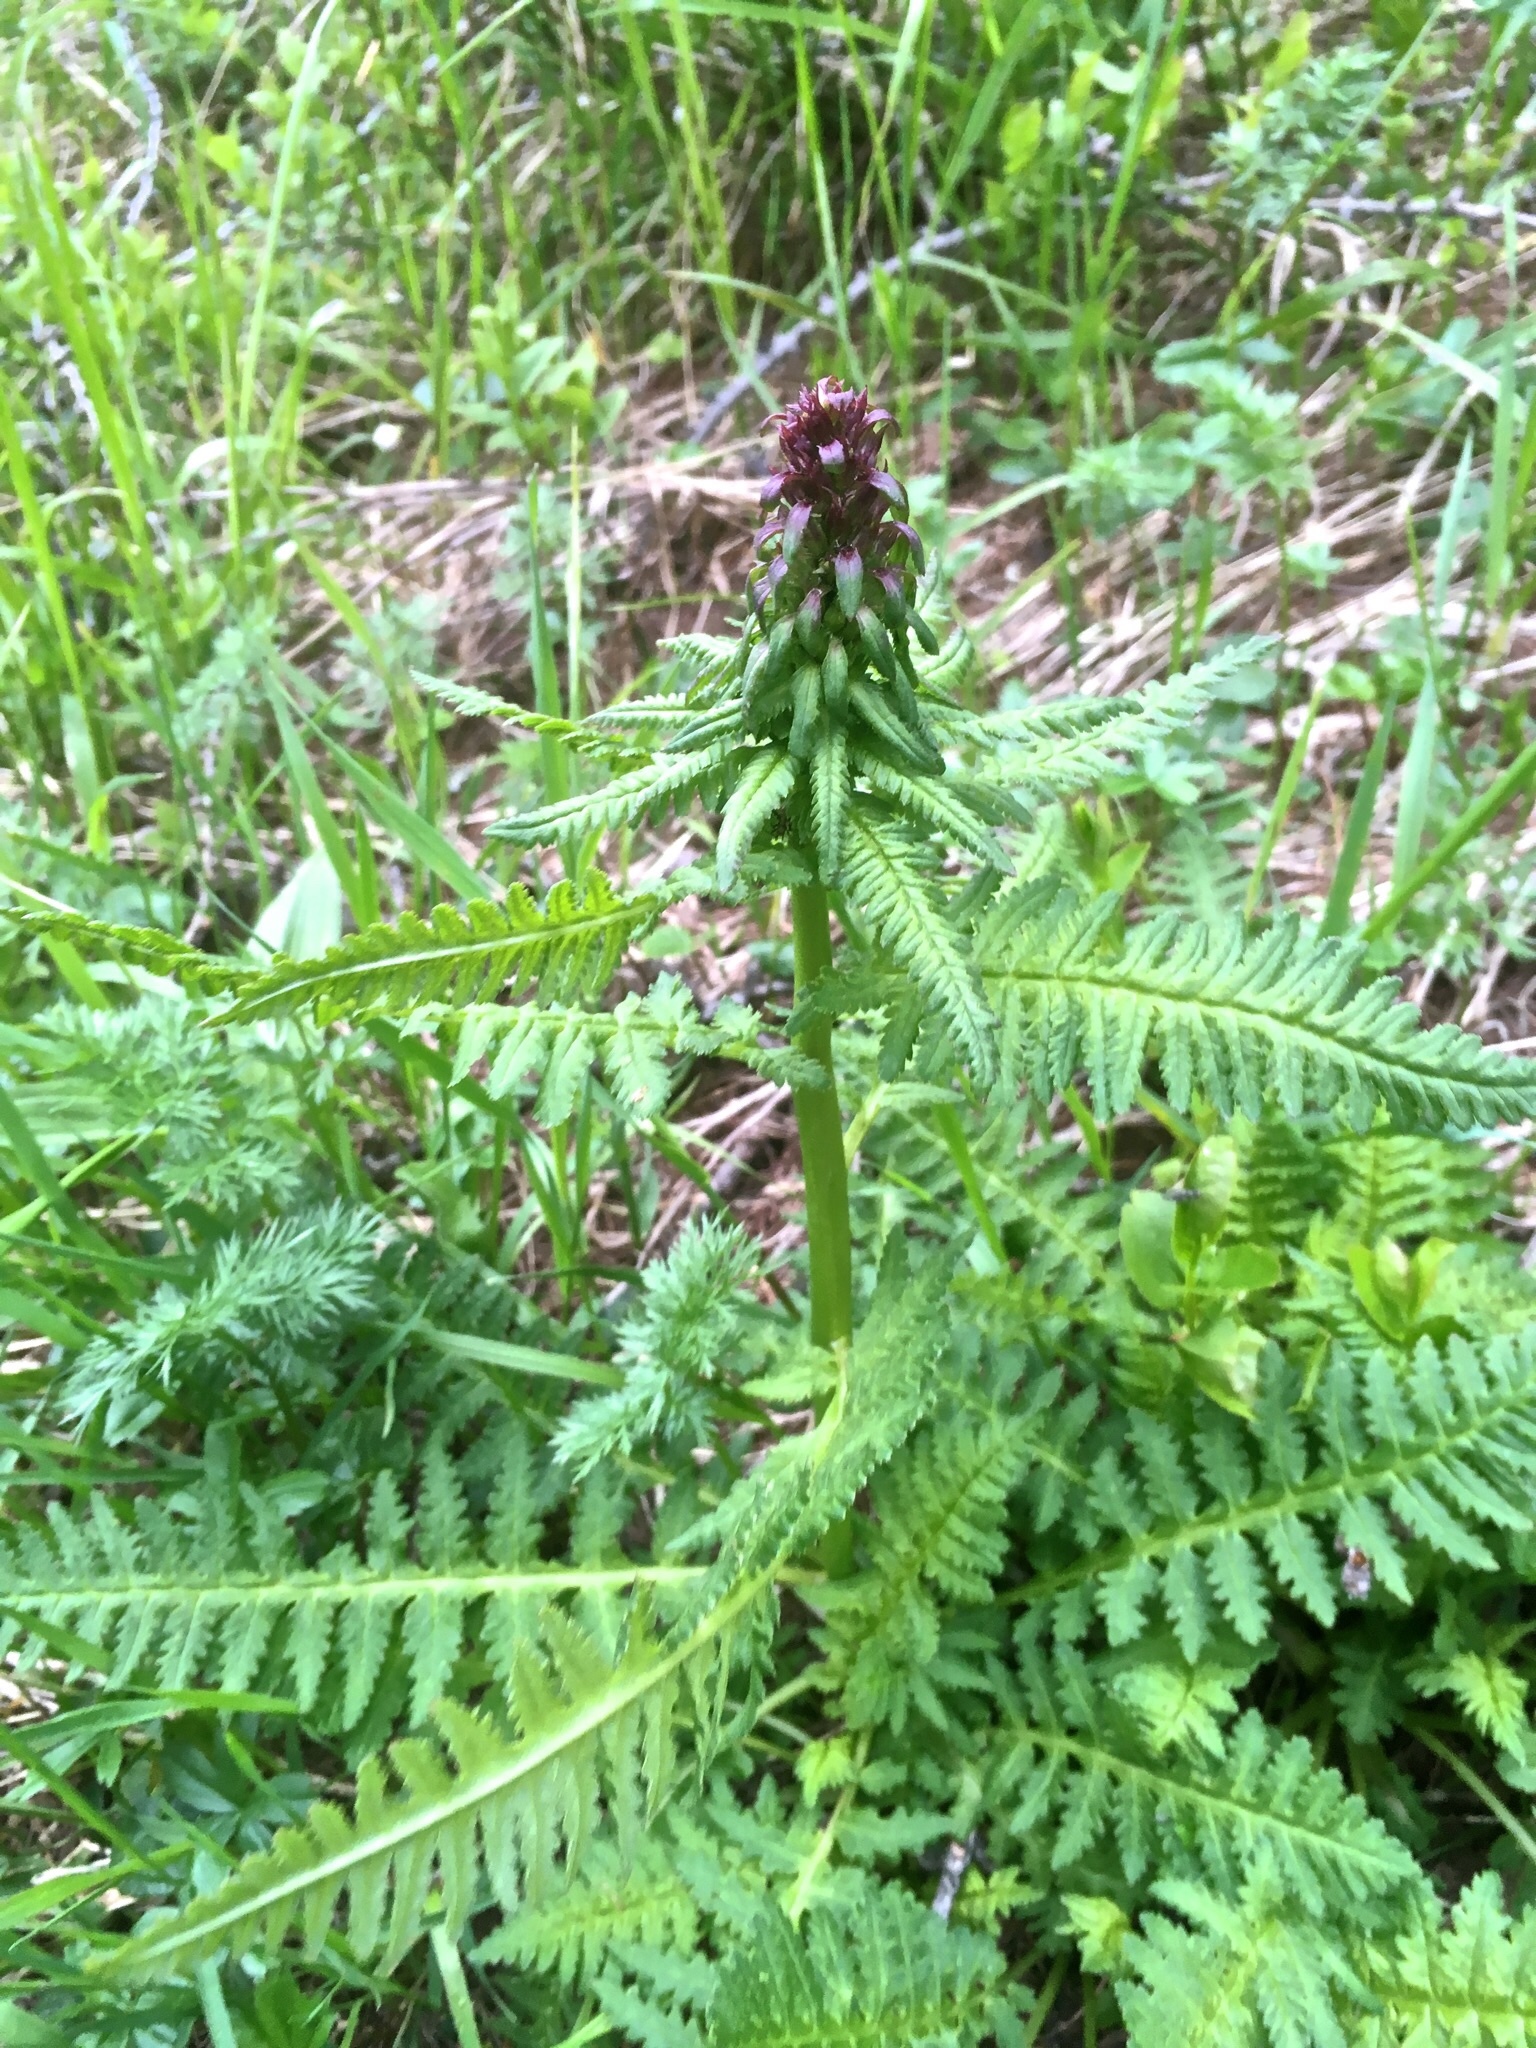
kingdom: Plantae
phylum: Tracheophyta
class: Magnoliopsida
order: Lamiales
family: Orobanchaceae
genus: Pedicularis
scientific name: Pedicularis recutita
